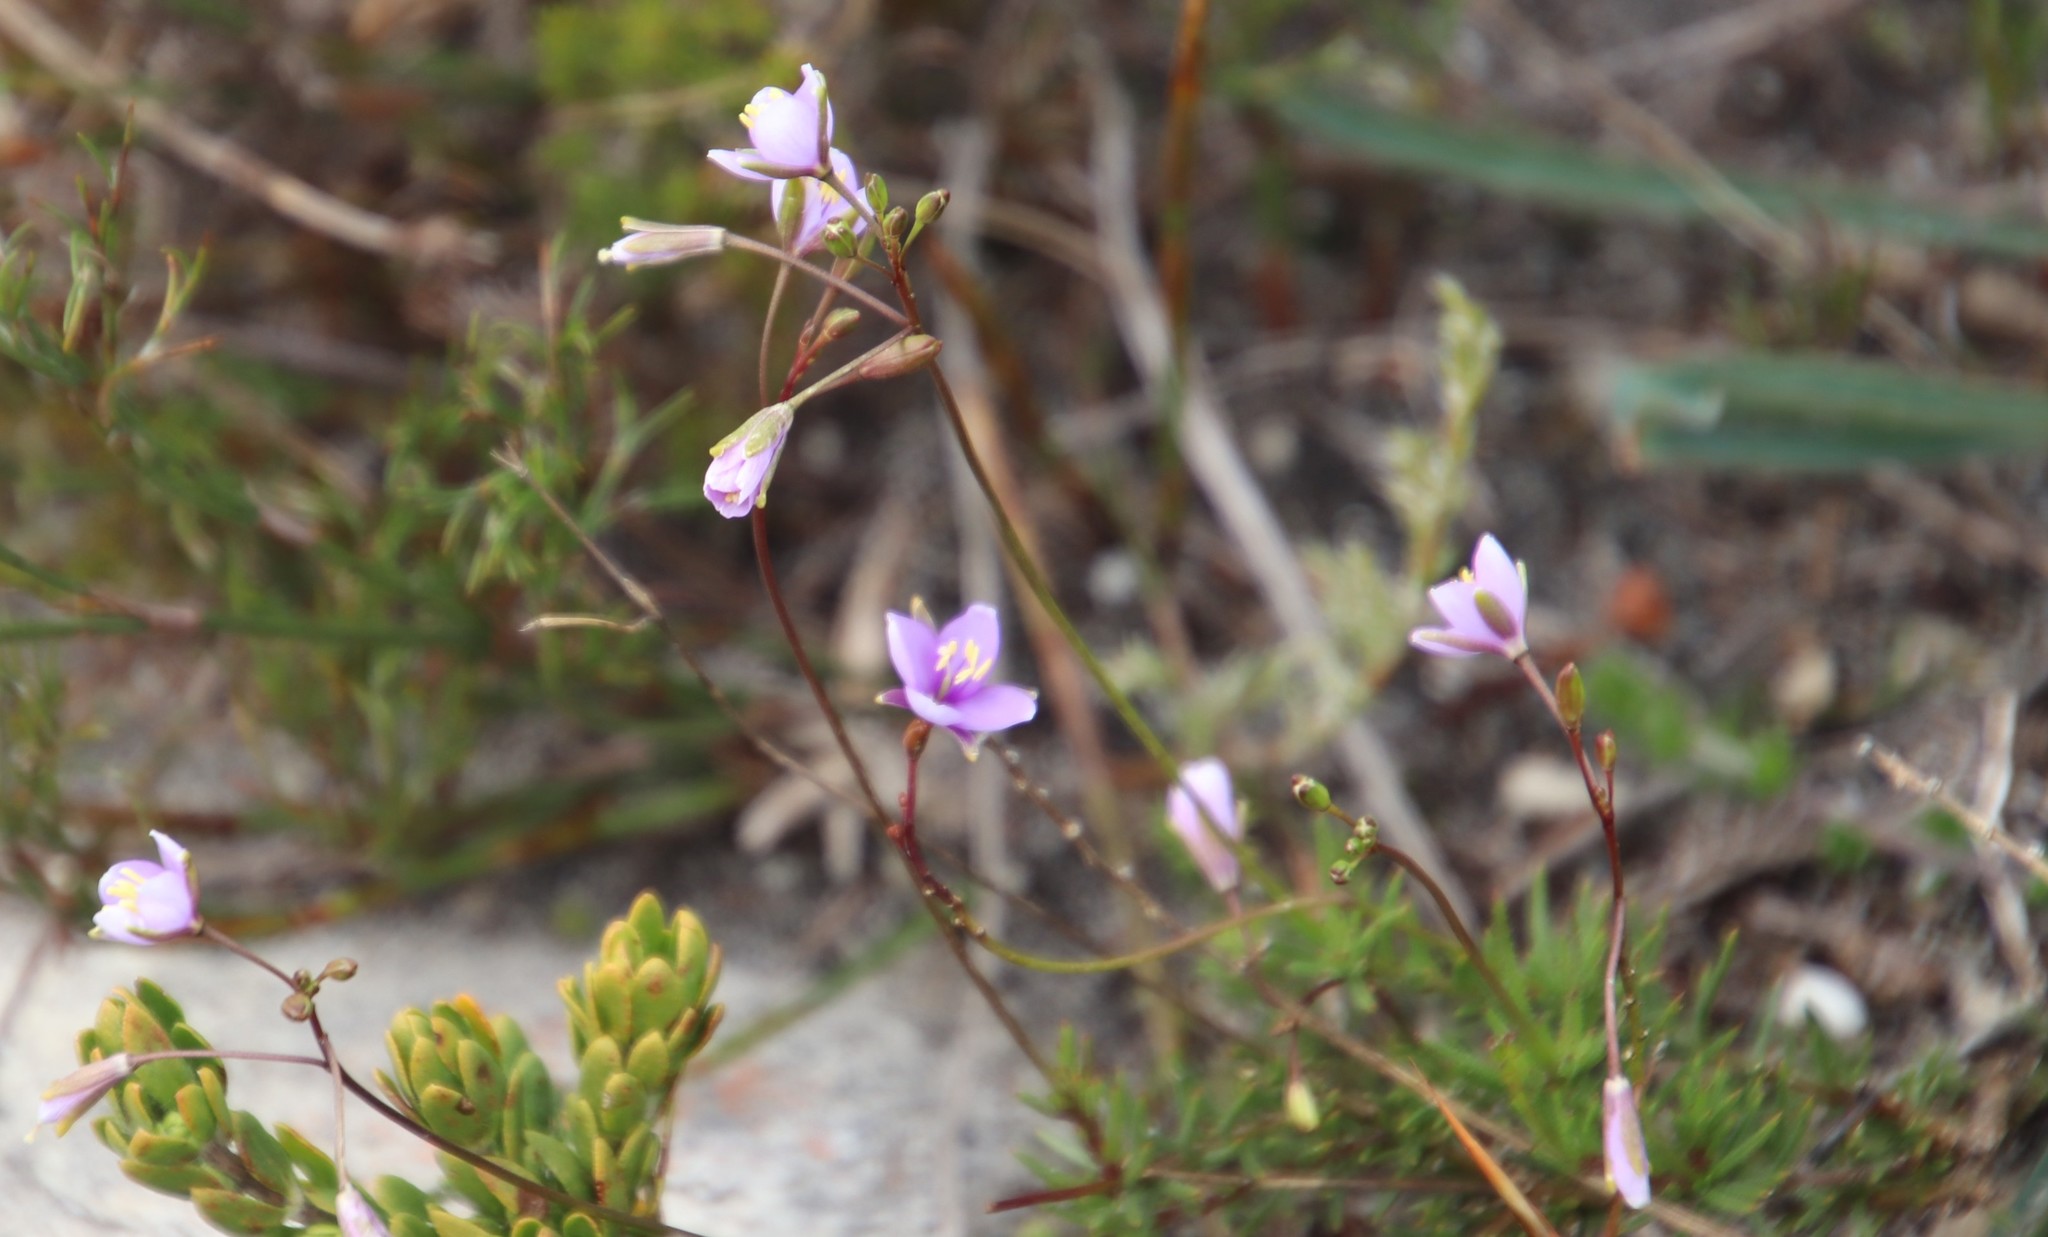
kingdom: Plantae
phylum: Tracheophyta
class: Magnoliopsida
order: Brassicales
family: Brassicaceae
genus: Heliophila
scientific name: Heliophila subulata
